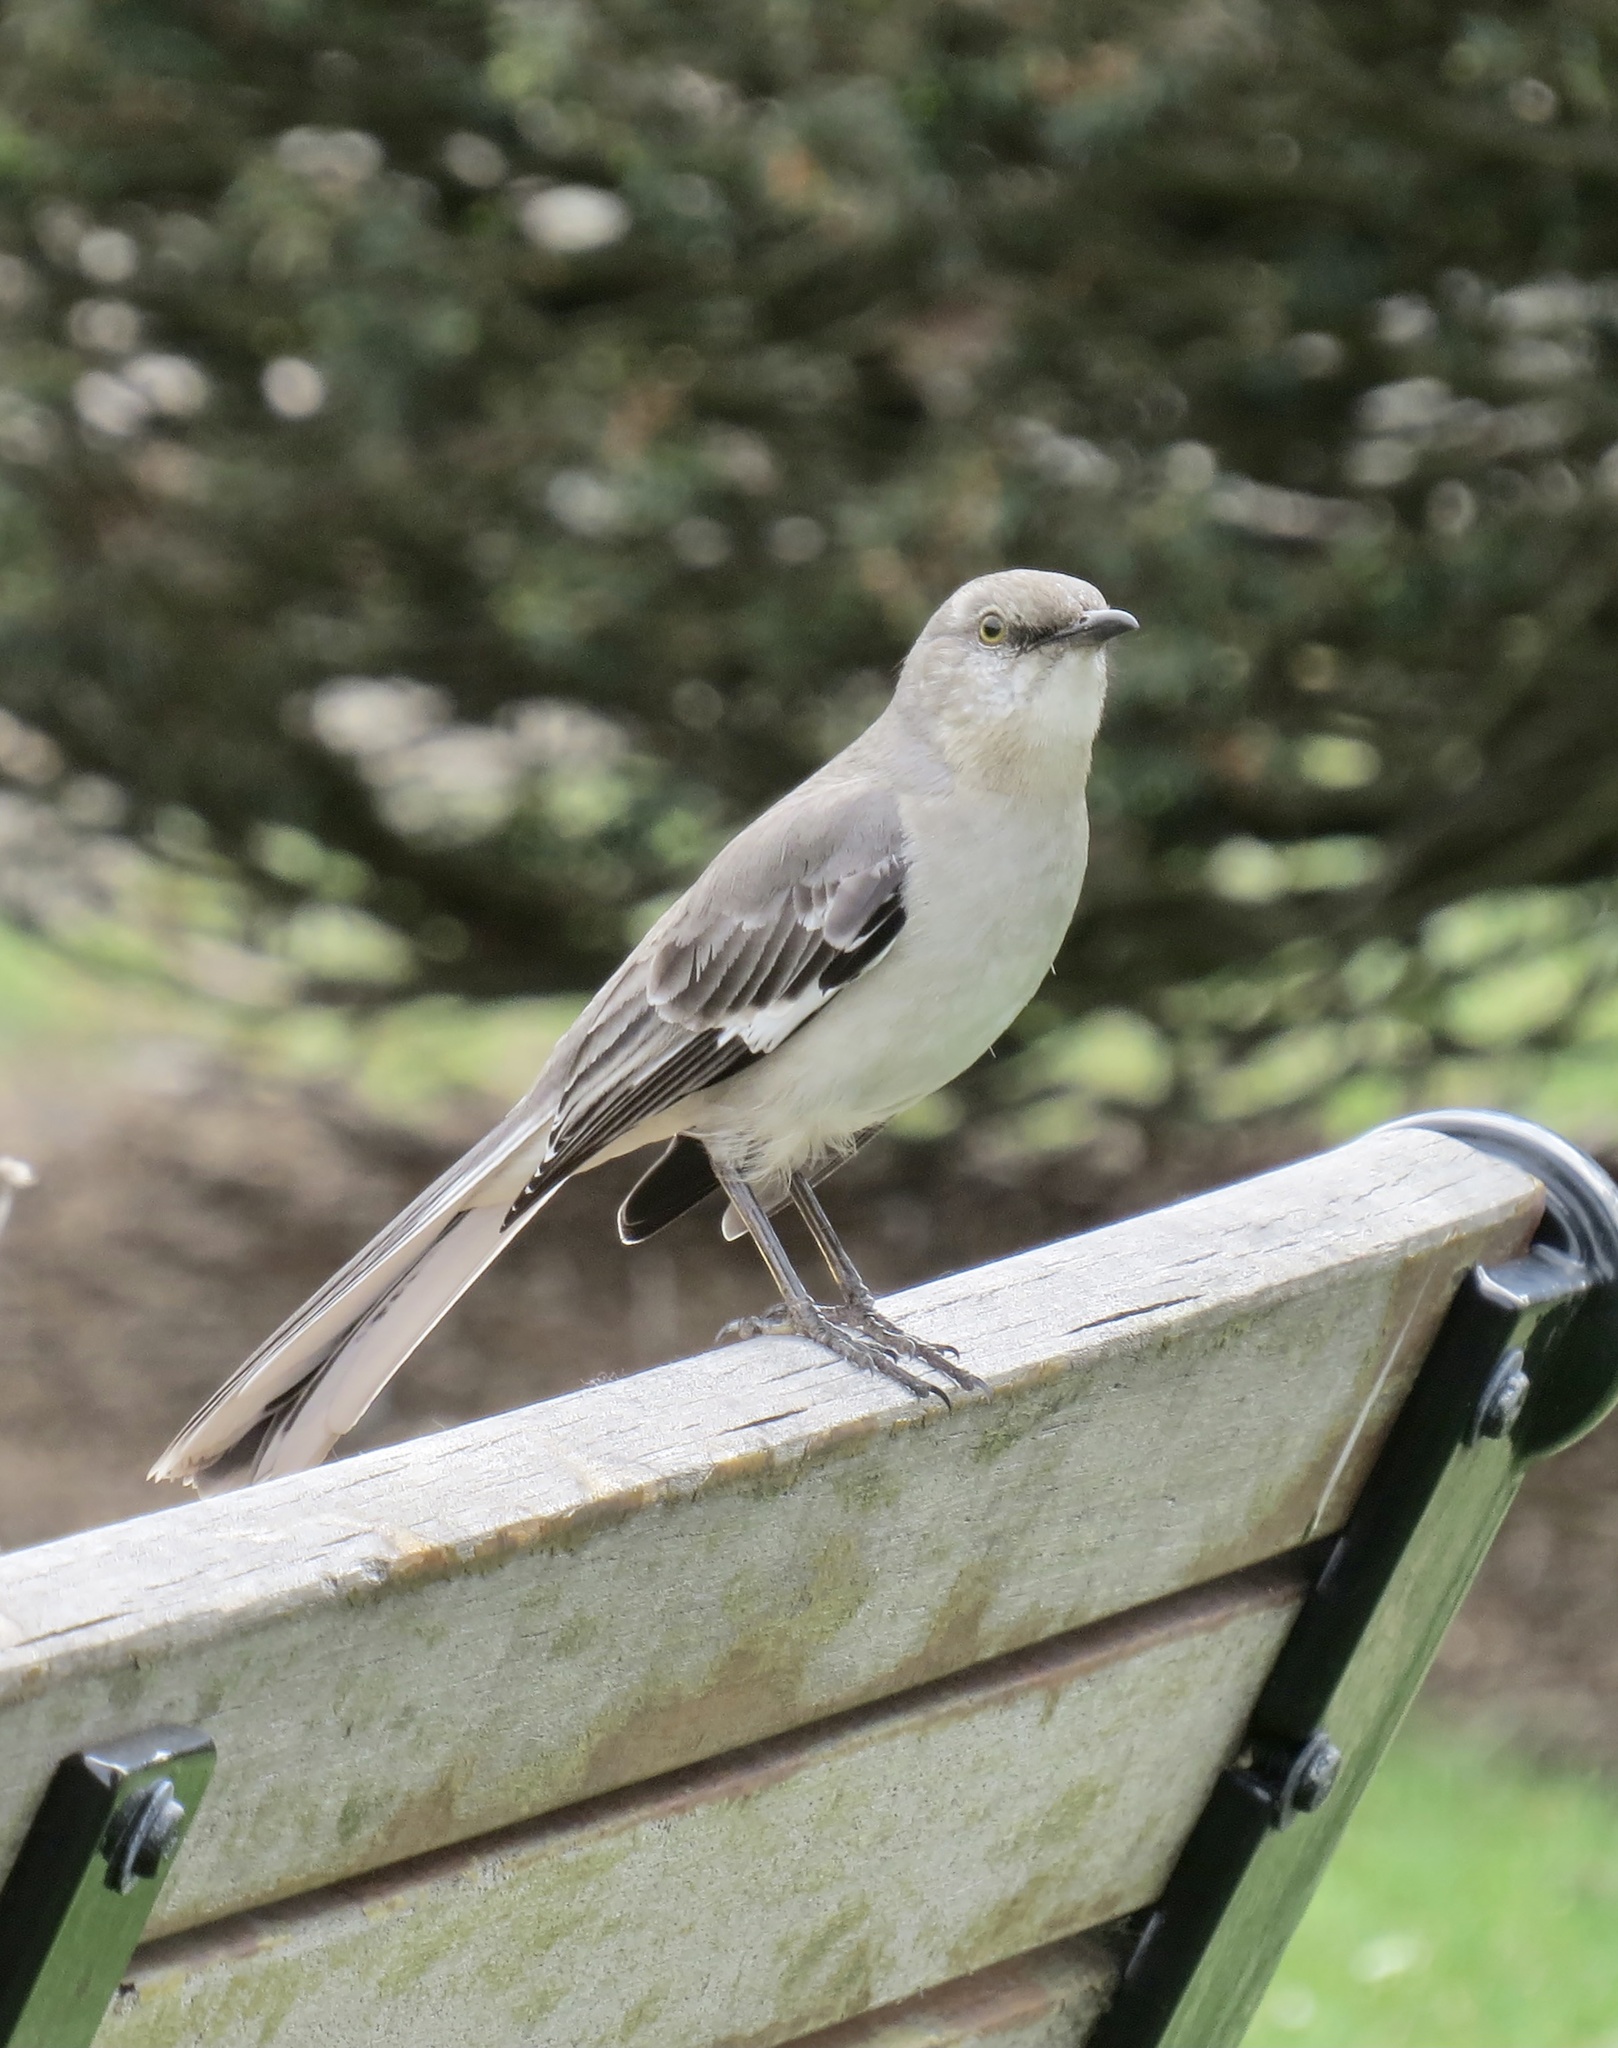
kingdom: Animalia
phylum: Chordata
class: Aves
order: Passeriformes
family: Mimidae
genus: Mimus
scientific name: Mimus polyglottos
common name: Northern mockingbird
